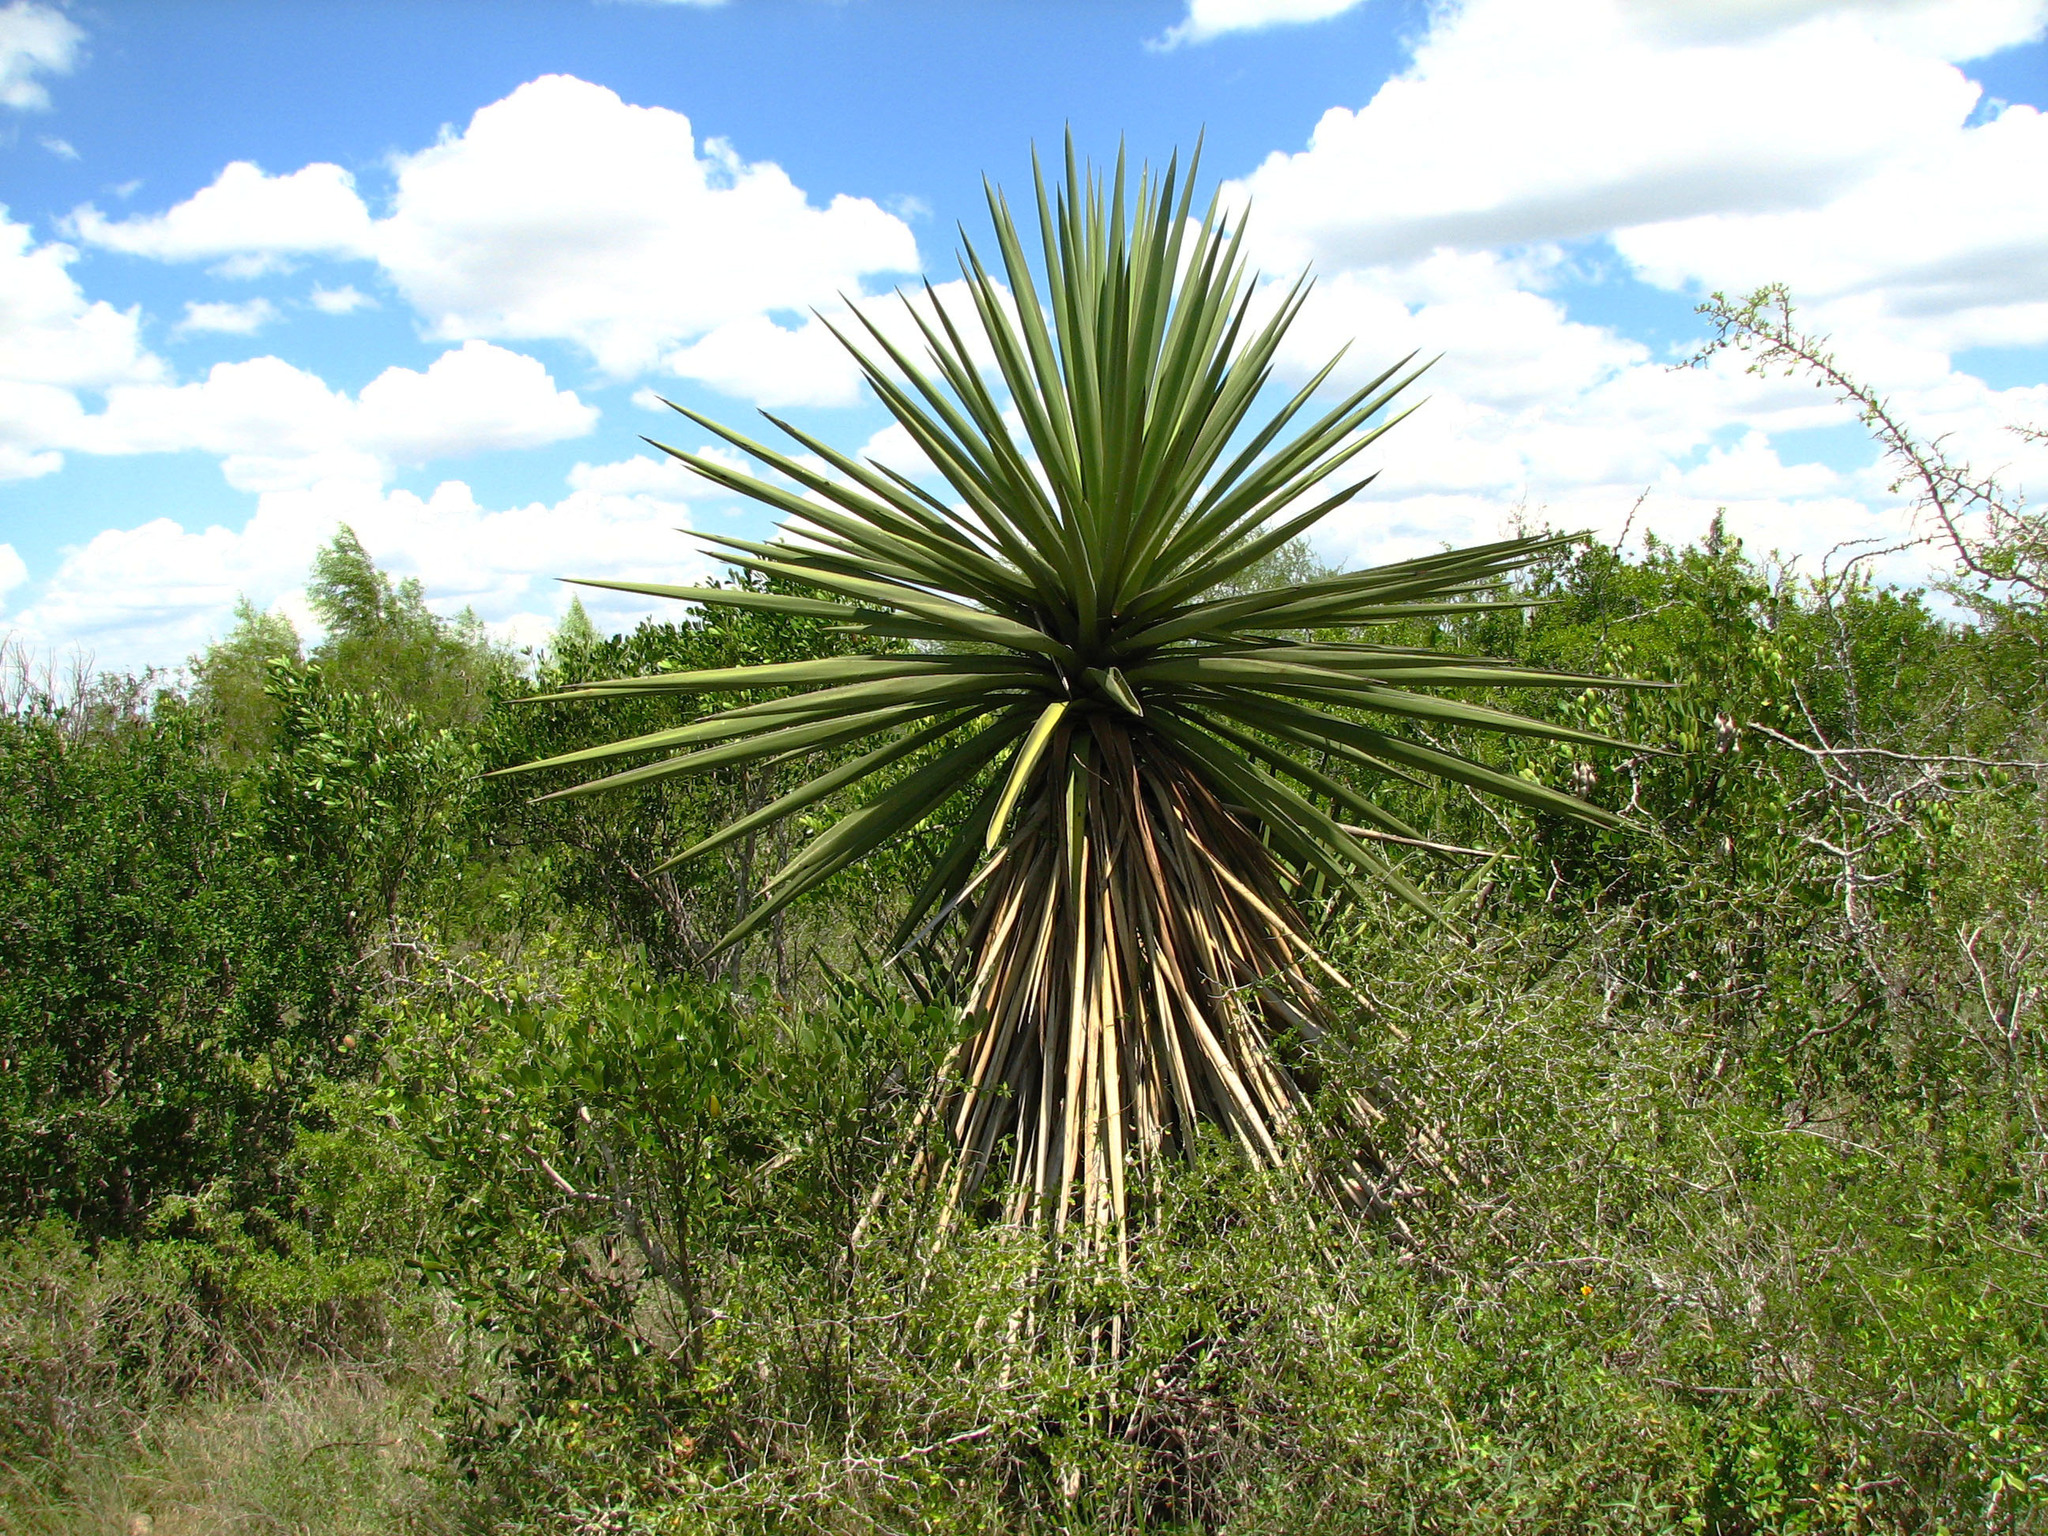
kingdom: Plantae
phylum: Tracheophyta
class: Liliopsida
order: Asparagales
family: Asparagaceae
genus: Yucca
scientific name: Yucca treculiana
